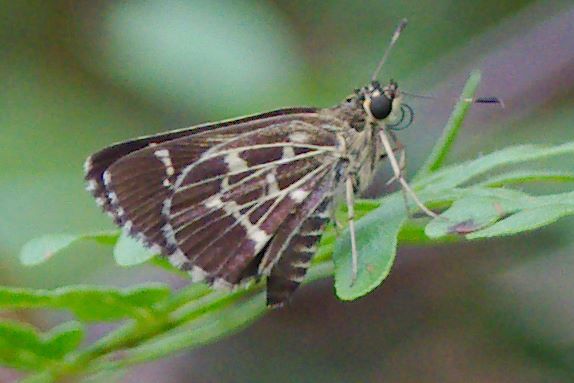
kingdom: Animalia
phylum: Arthropoda
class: Insecta
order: Lepidoptera
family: Hesperiidae
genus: Mastor
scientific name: Mastor aesculapius
